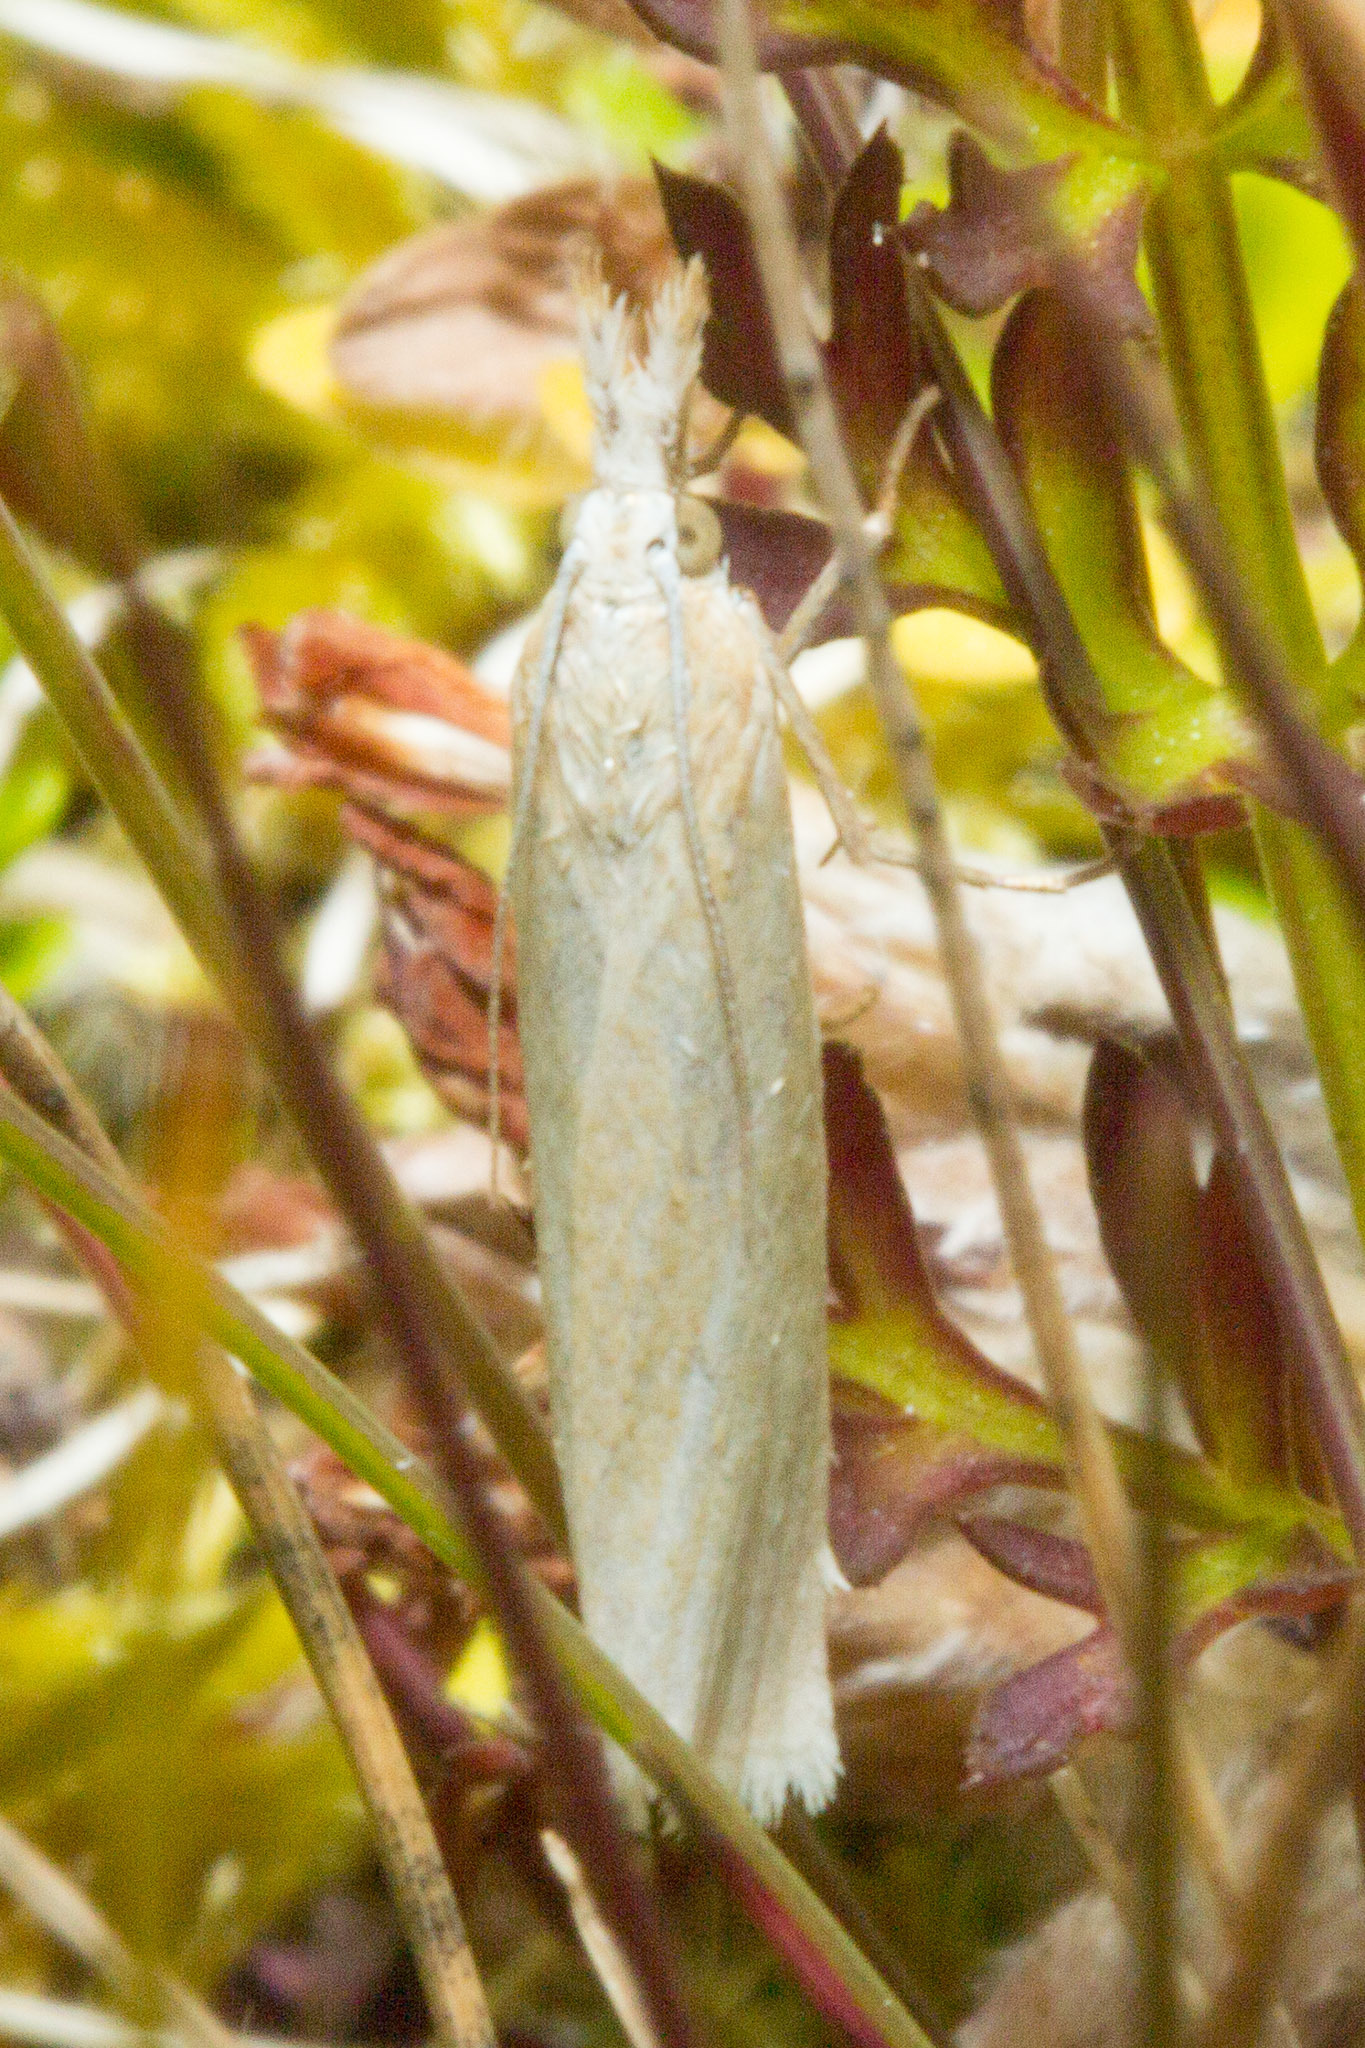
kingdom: Animalia
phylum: Arthropoda
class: Insecta
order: Lepidoptera
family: Crambidae
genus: Crambus
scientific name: Crambus perlellus
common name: Yellow satin veneer
